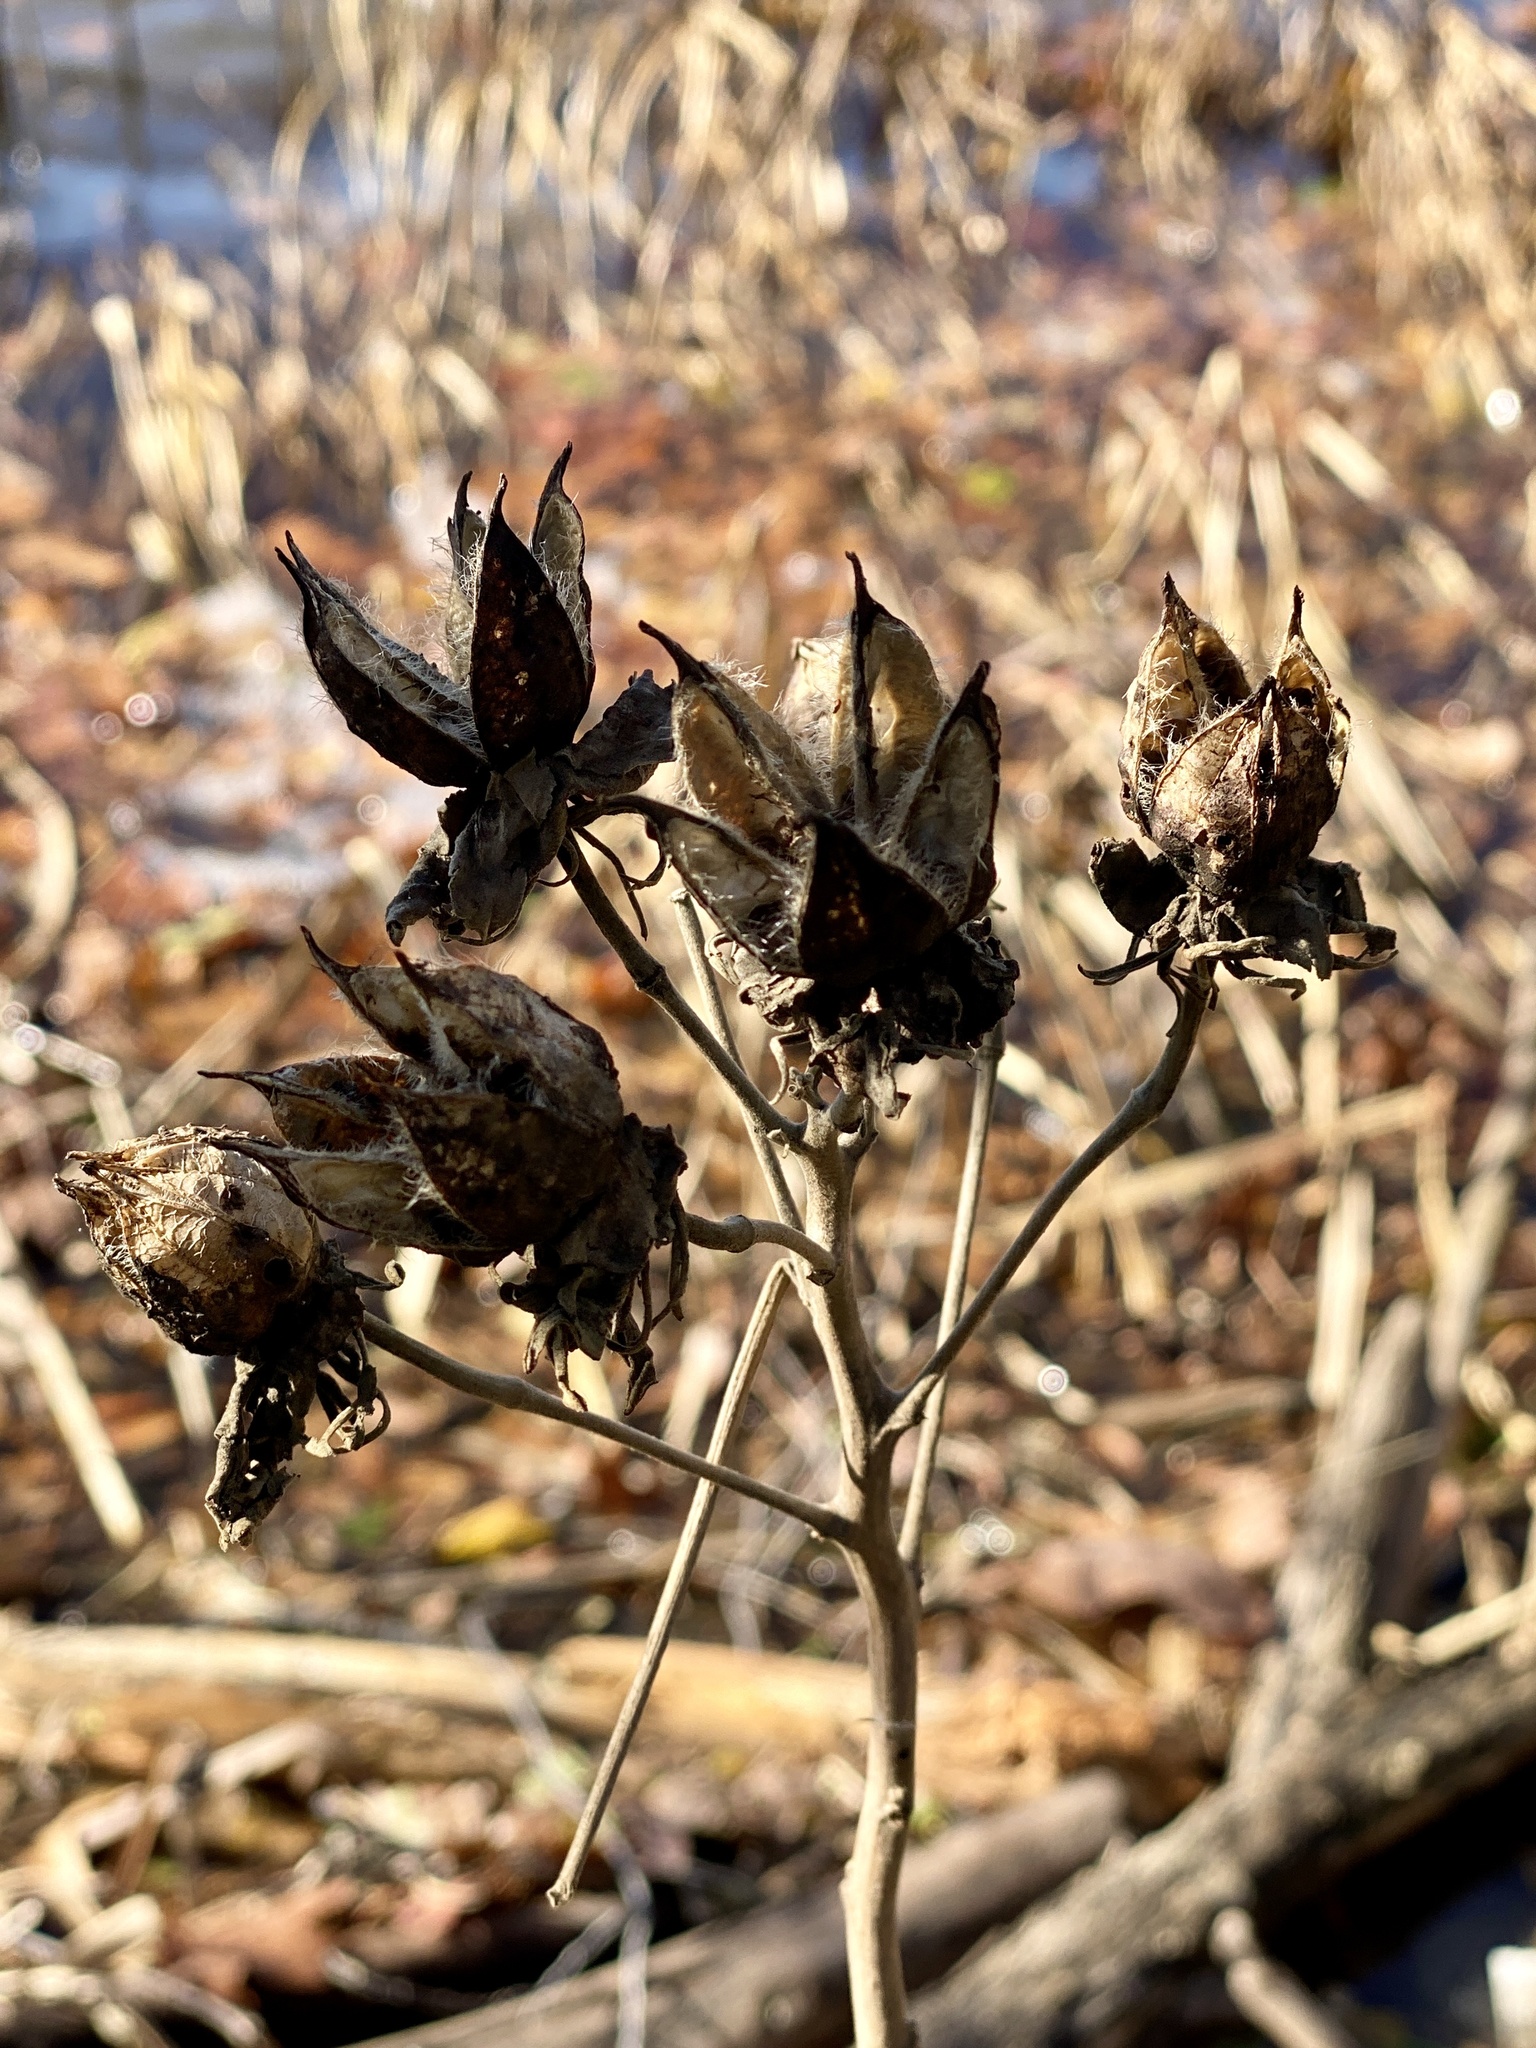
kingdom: Plantae
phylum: Tracheophyta
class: Magnoliopsida
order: Malvales
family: Malvaceae
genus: Hibiscus
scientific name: Hibiscus moscheutos
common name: Common rose-mallow
